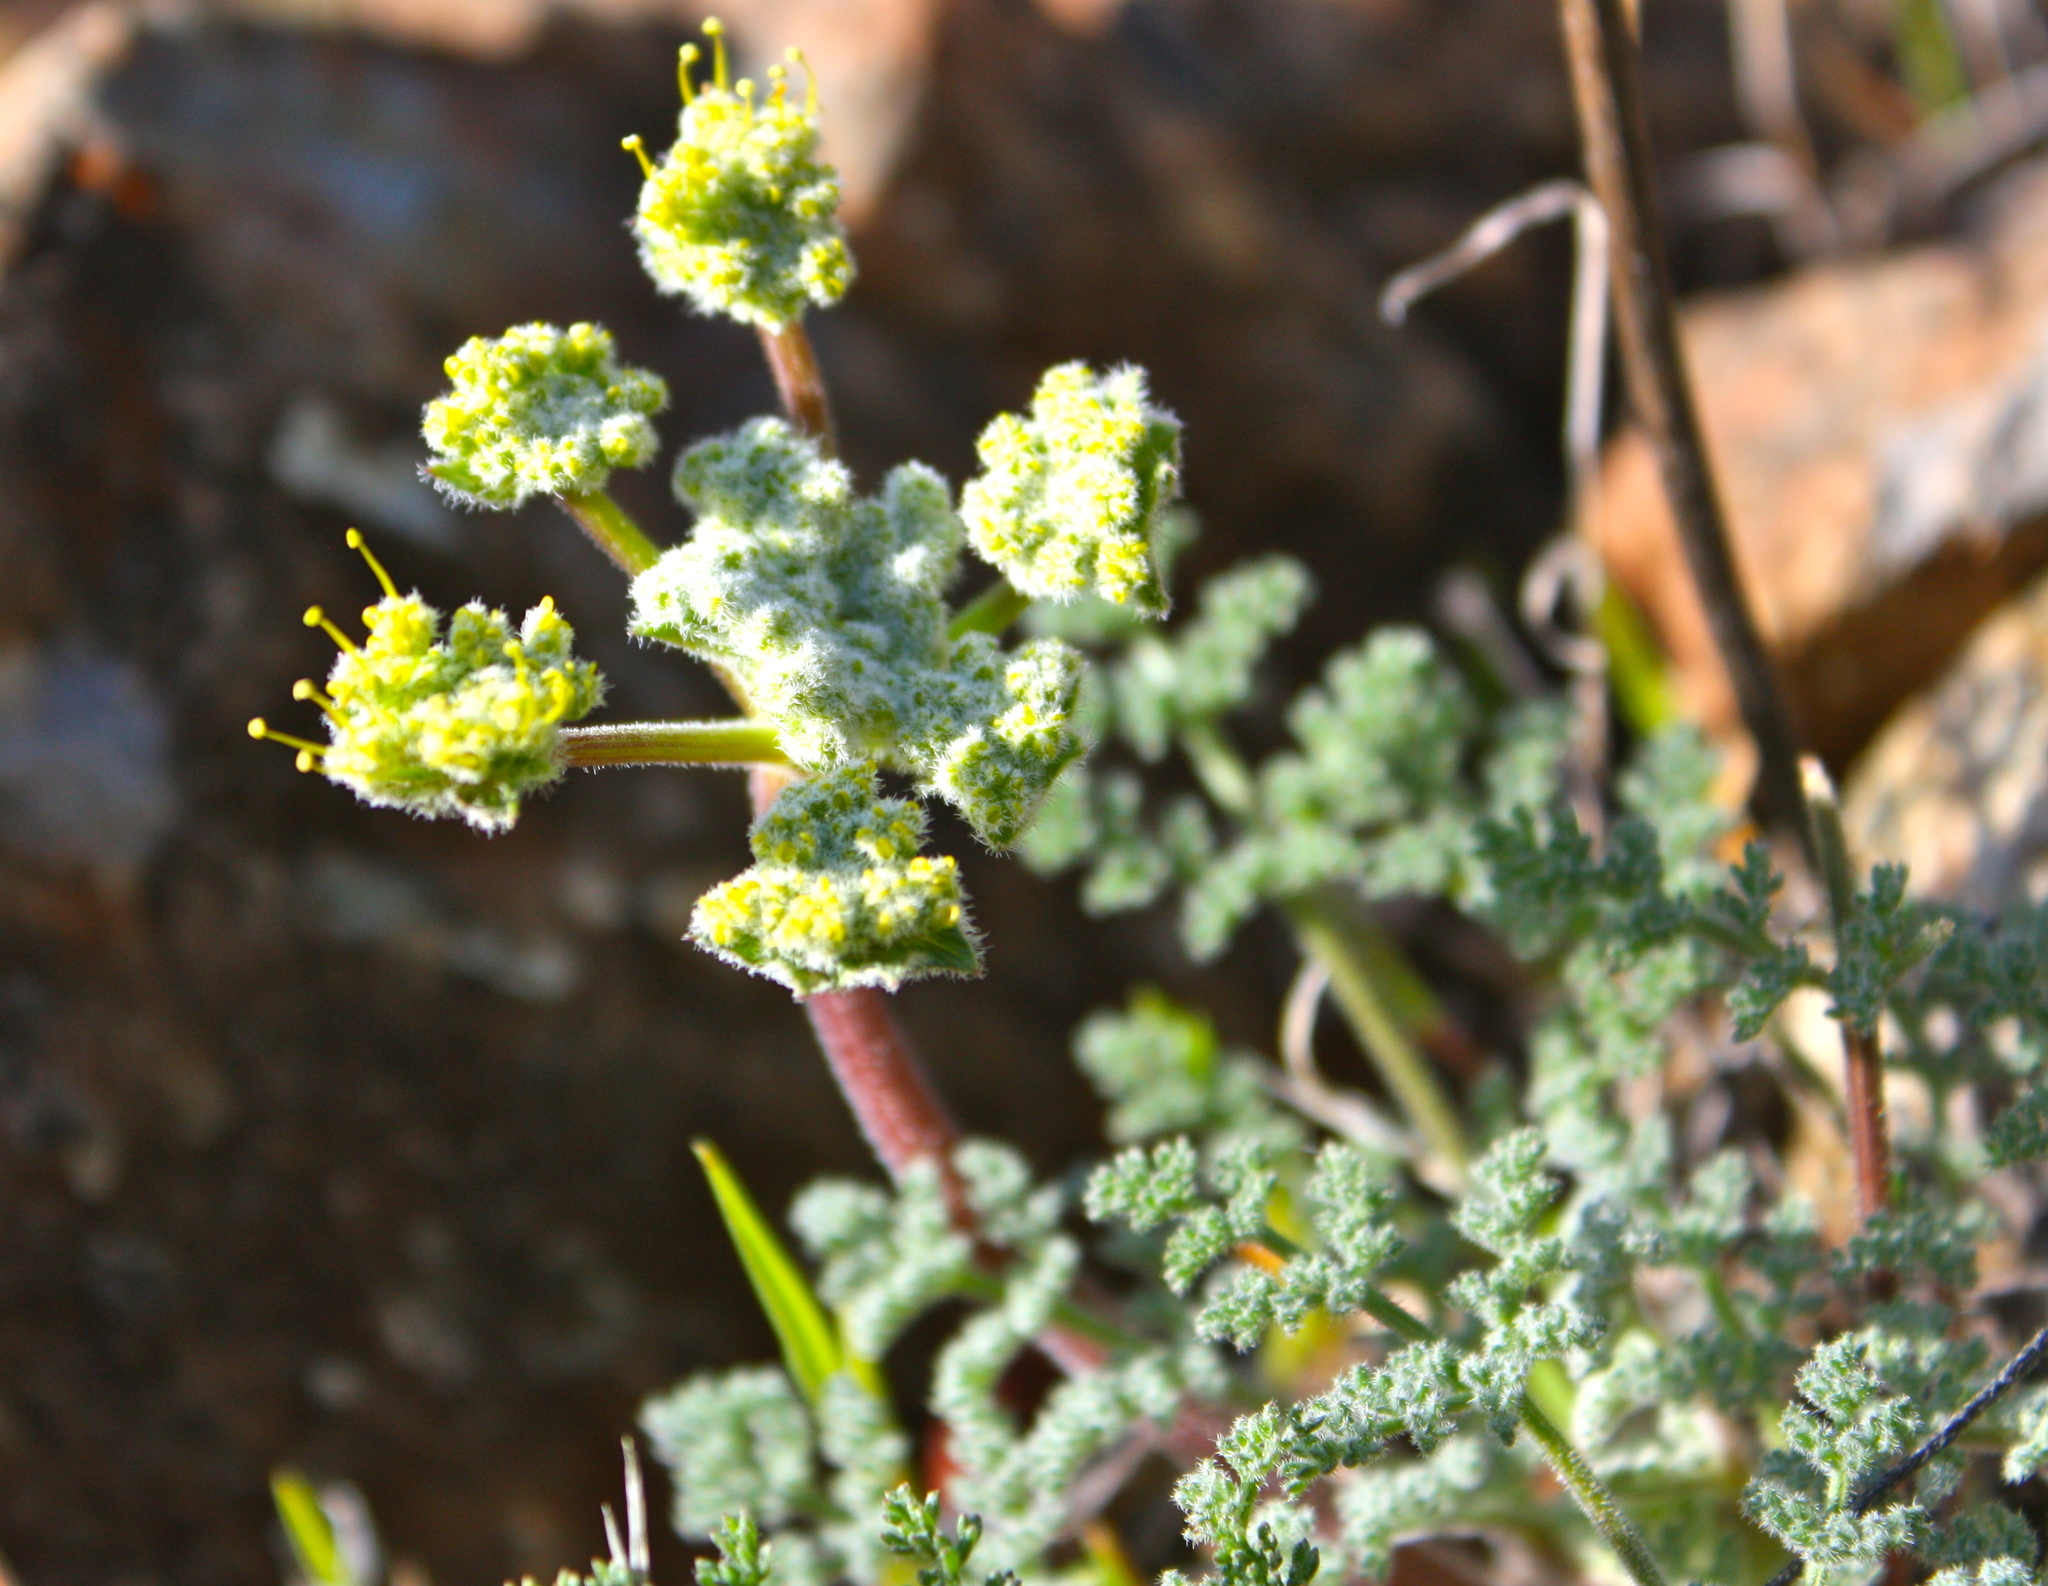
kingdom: Plantae
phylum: Tracheophyta
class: Magnoliopsida
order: Apiales
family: Apiaceae
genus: Lomatium
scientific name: Lomatium dasycarpum
